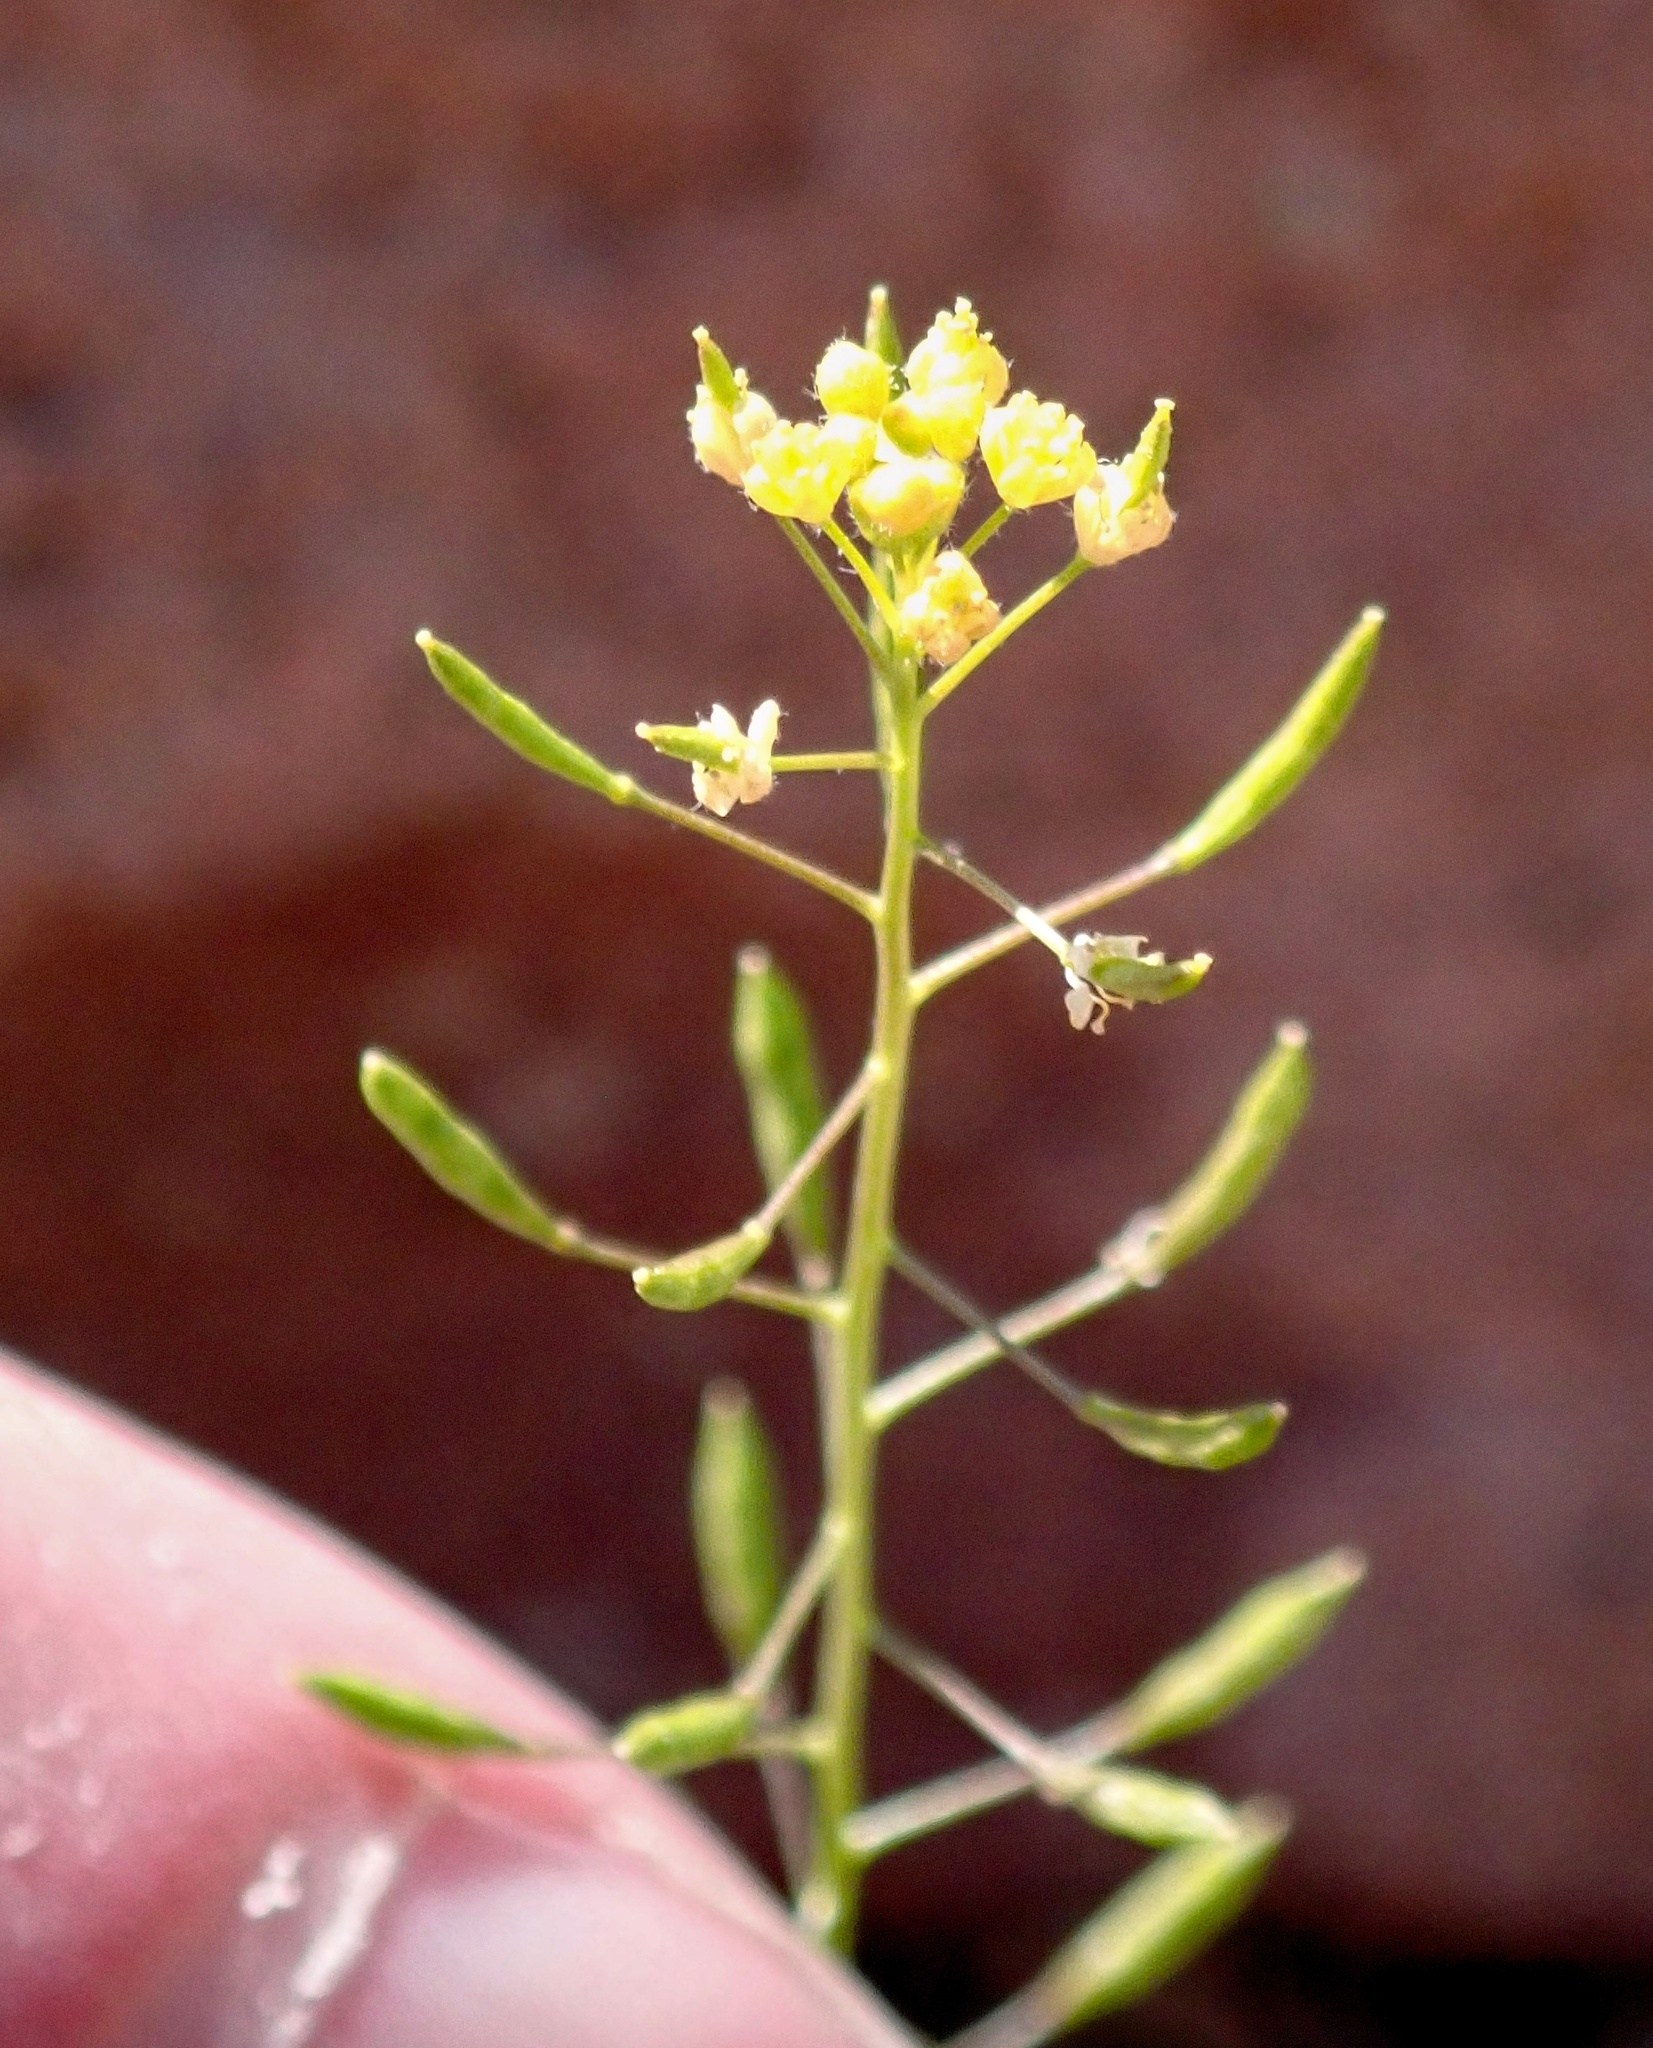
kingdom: Plantae
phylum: Tracheophyta
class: Magnoliopsida
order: Brassicales
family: Brassicaceae
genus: Descurainia
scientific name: Descurainia pinnata
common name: Western tansy mustard
